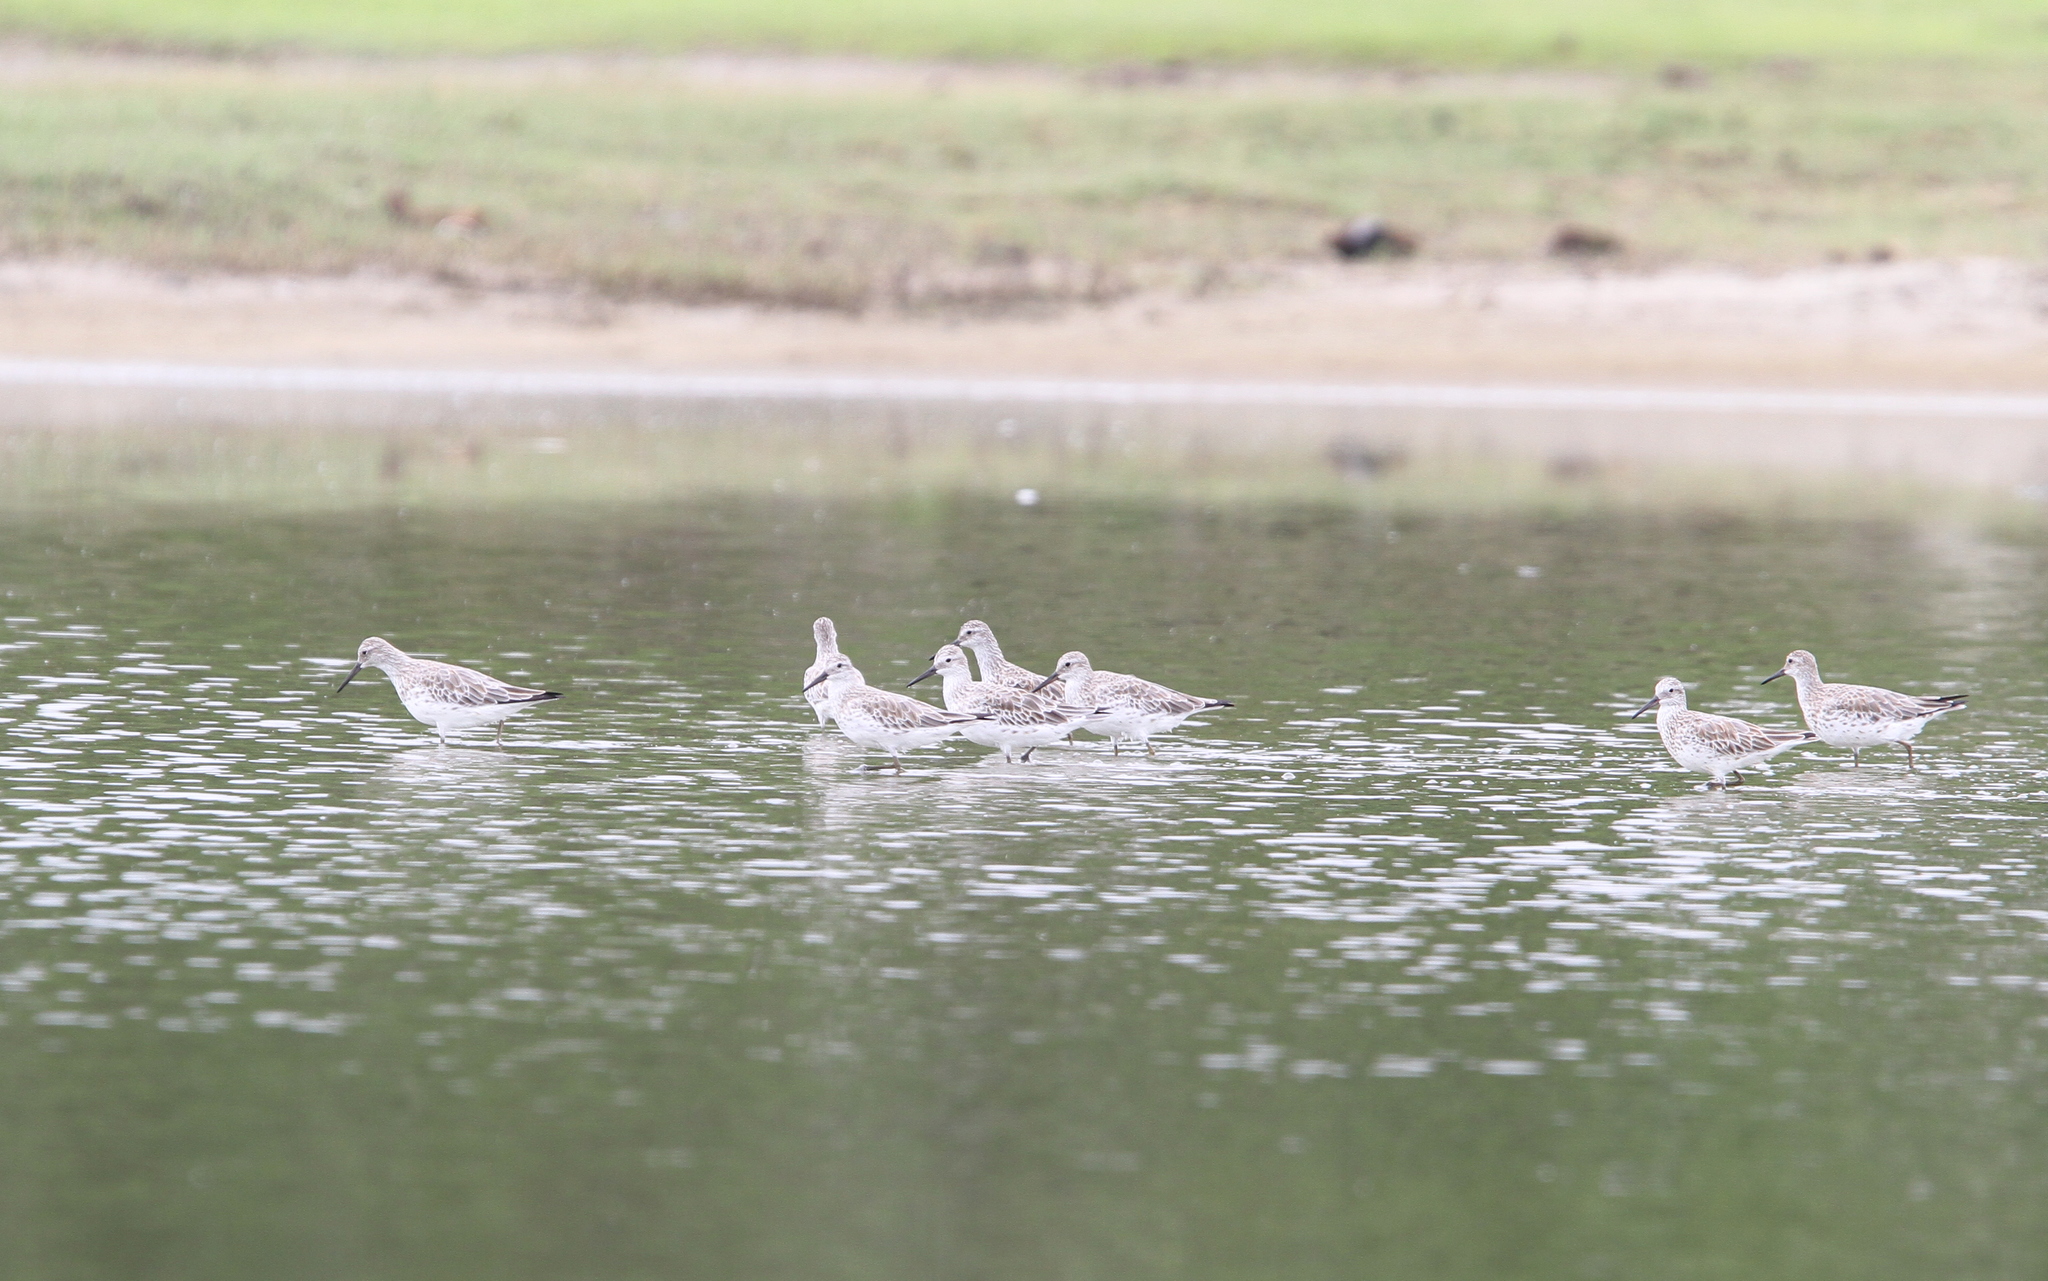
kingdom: Animalia
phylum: Chordata
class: Aves
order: Charadriiformes
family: Scolopacidae
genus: Calidris
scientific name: Calidris tenuirostris
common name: Great knot
